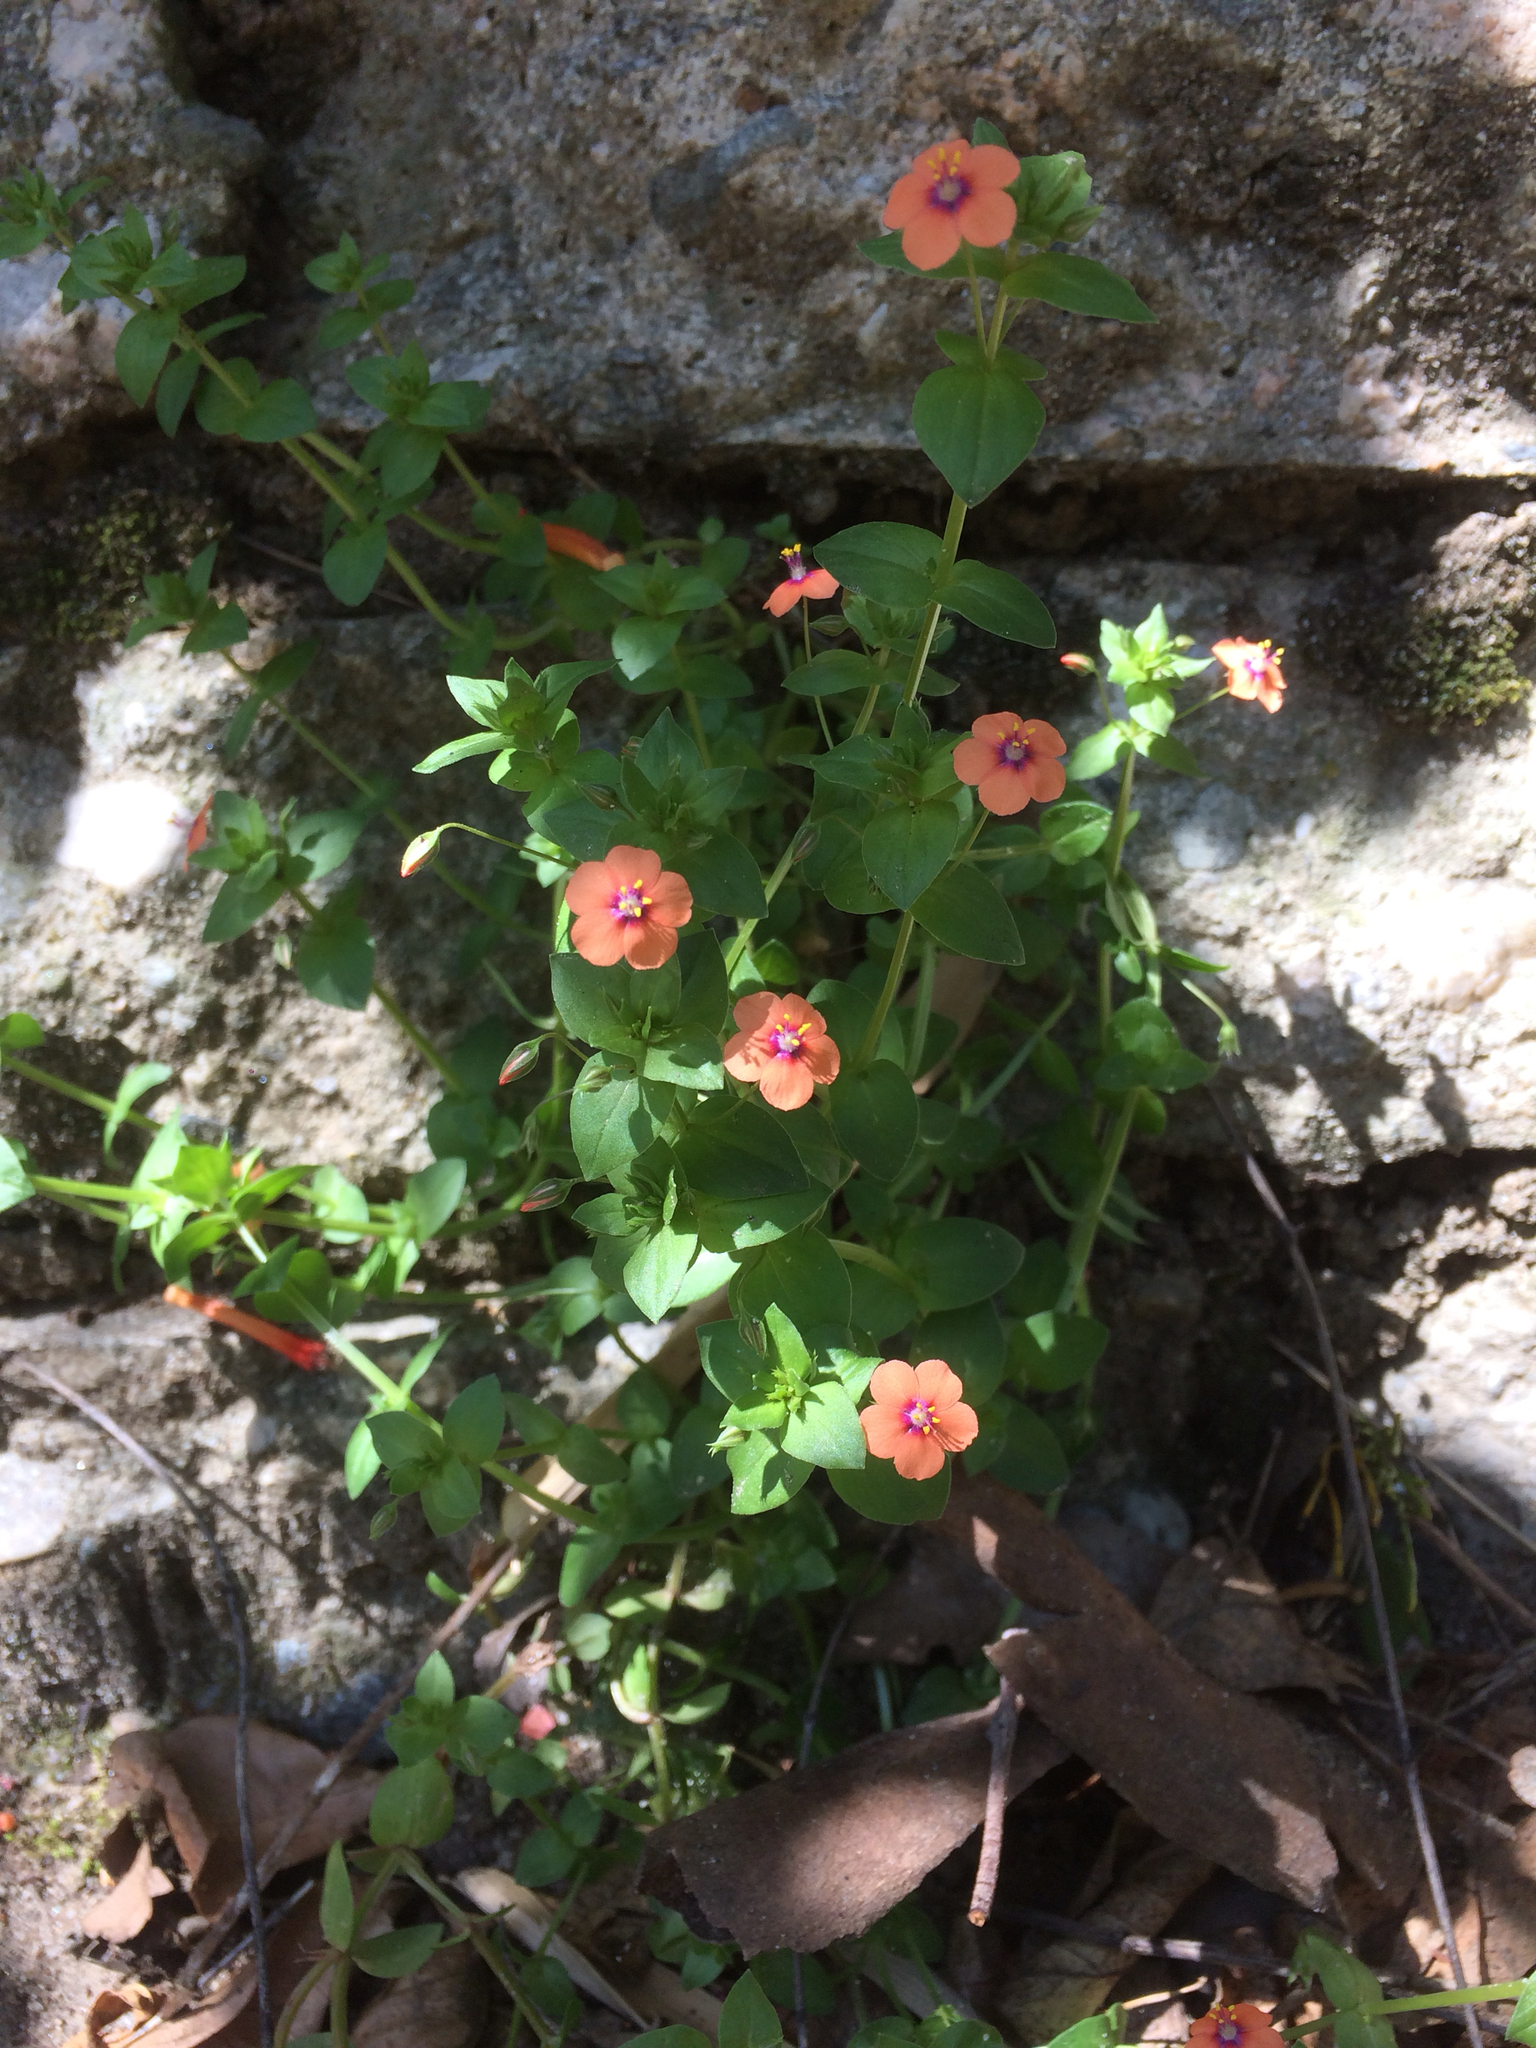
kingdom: Plantae
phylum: Tracheophyta
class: Magnoliopsida
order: Ericales
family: Primulaceae
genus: Lysimachia
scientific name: Lysimachia arvensis
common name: Scarlet pimpernel
